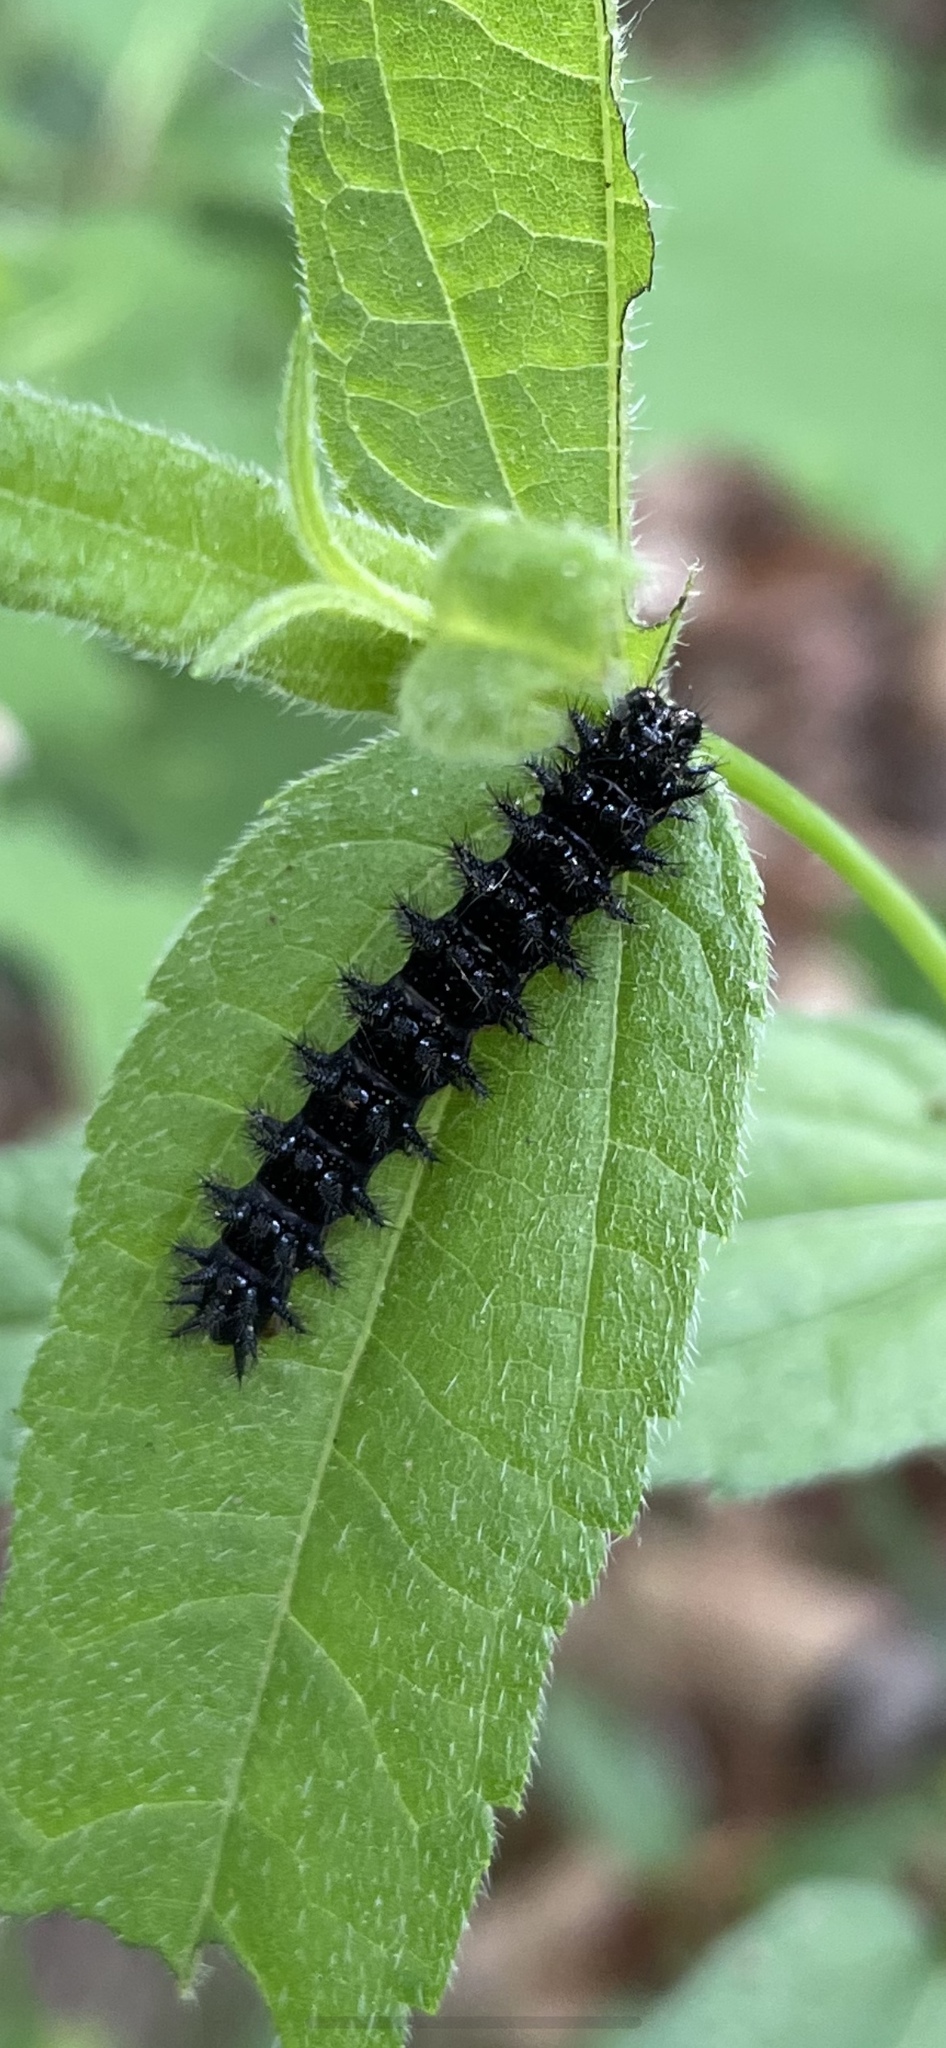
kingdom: Animalia
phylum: Arthropoda
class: Insecta
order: Lepidoptera
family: Nymphalidae
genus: Chlosyne
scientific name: Chlosyne nycteis
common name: Silvery checkerspot
